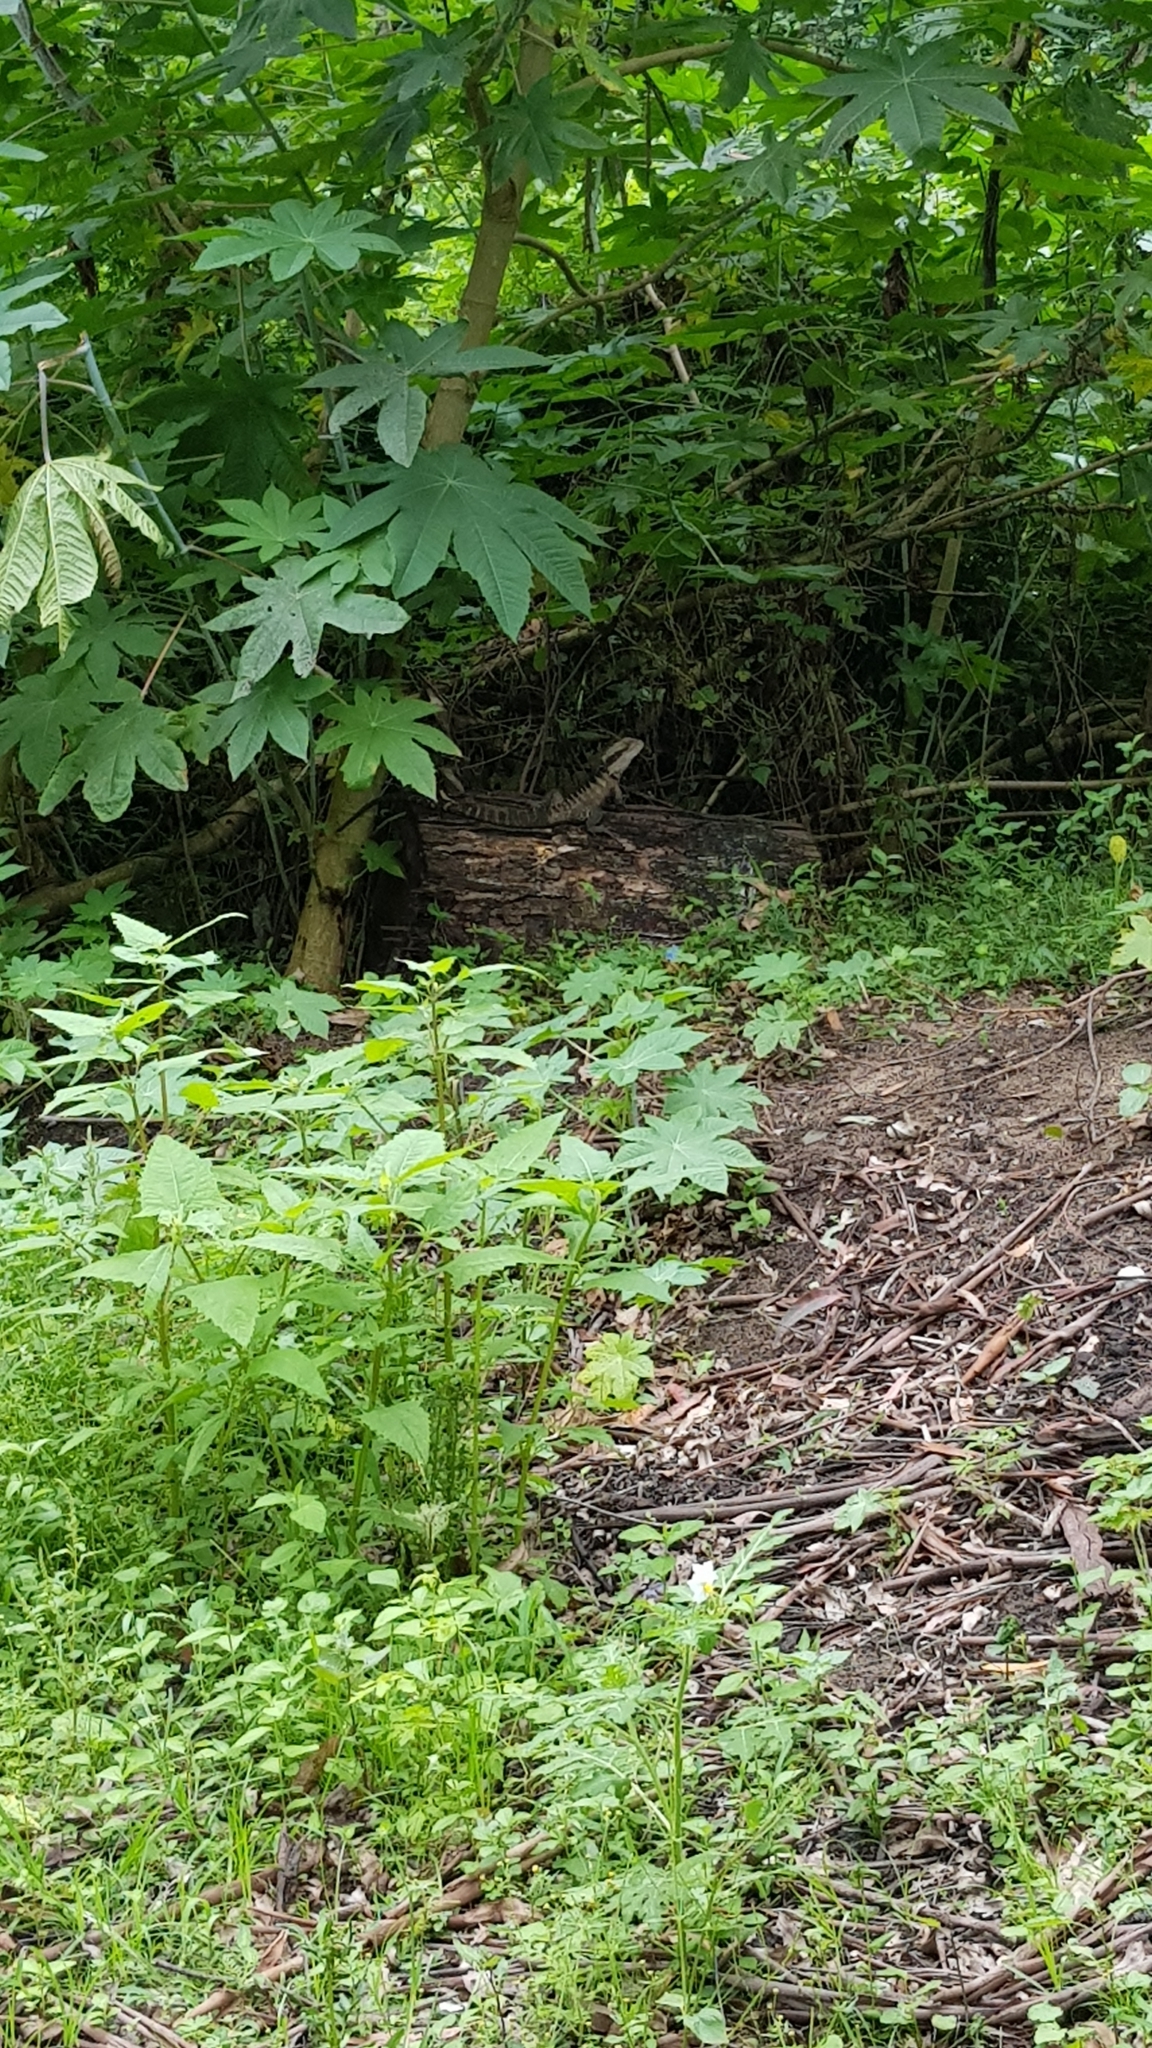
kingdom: Animalia
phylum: Chordata
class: Squamata
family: Agamidae
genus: Intellagama
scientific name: Intellagama lesueurii
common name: Eastern water dragon
